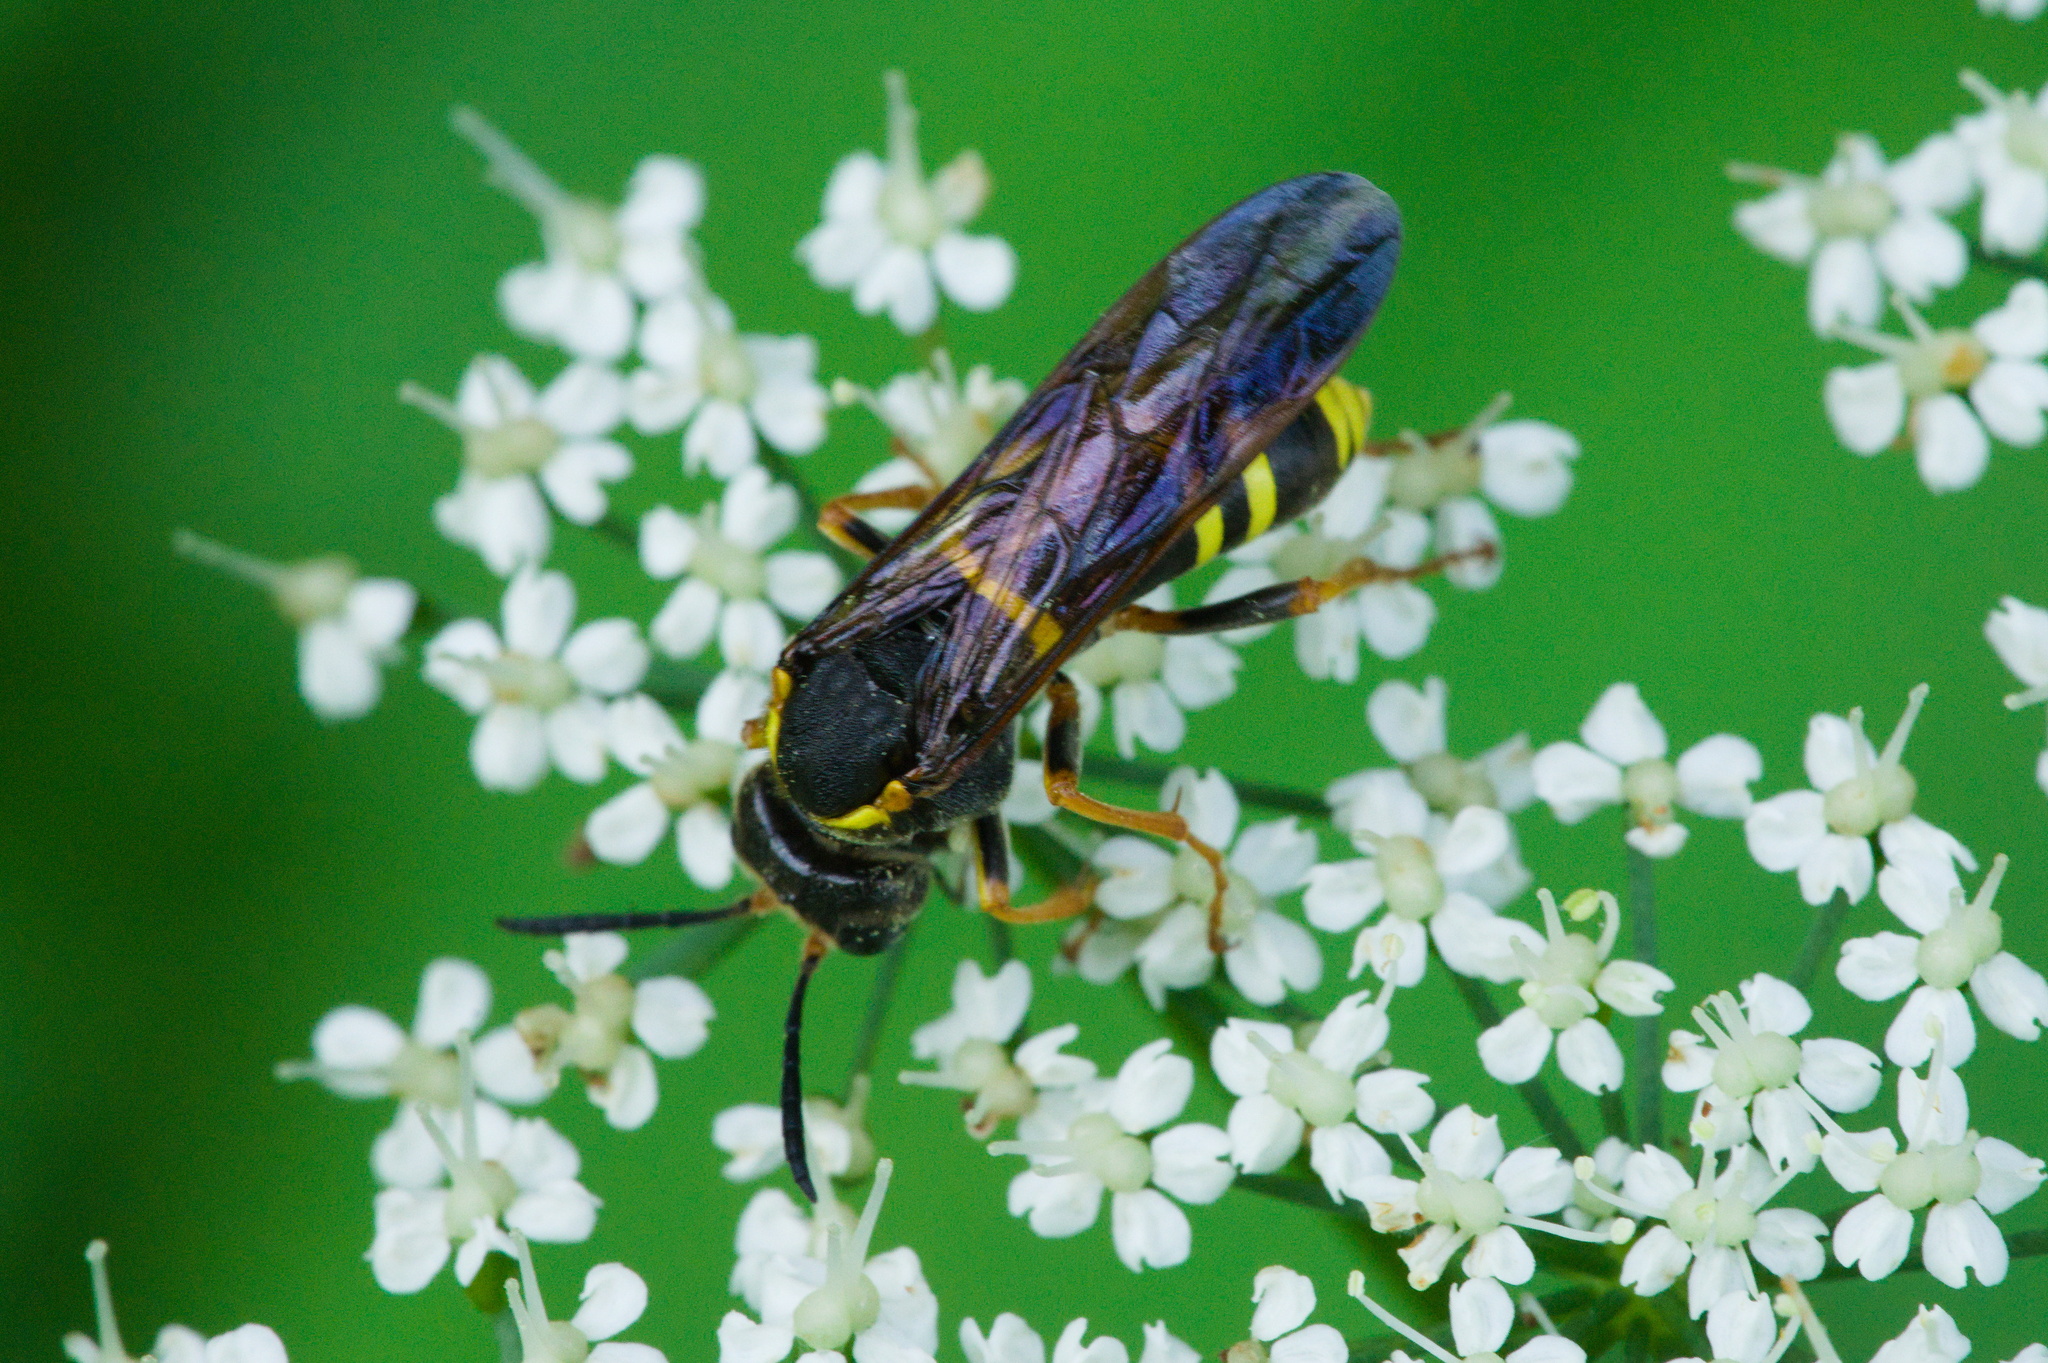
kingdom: Animalia
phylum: Arthropoda
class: Insecta
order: Hymenoptera
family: Tenthredinidae
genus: Tenthredo
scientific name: Tenthredo vespa
